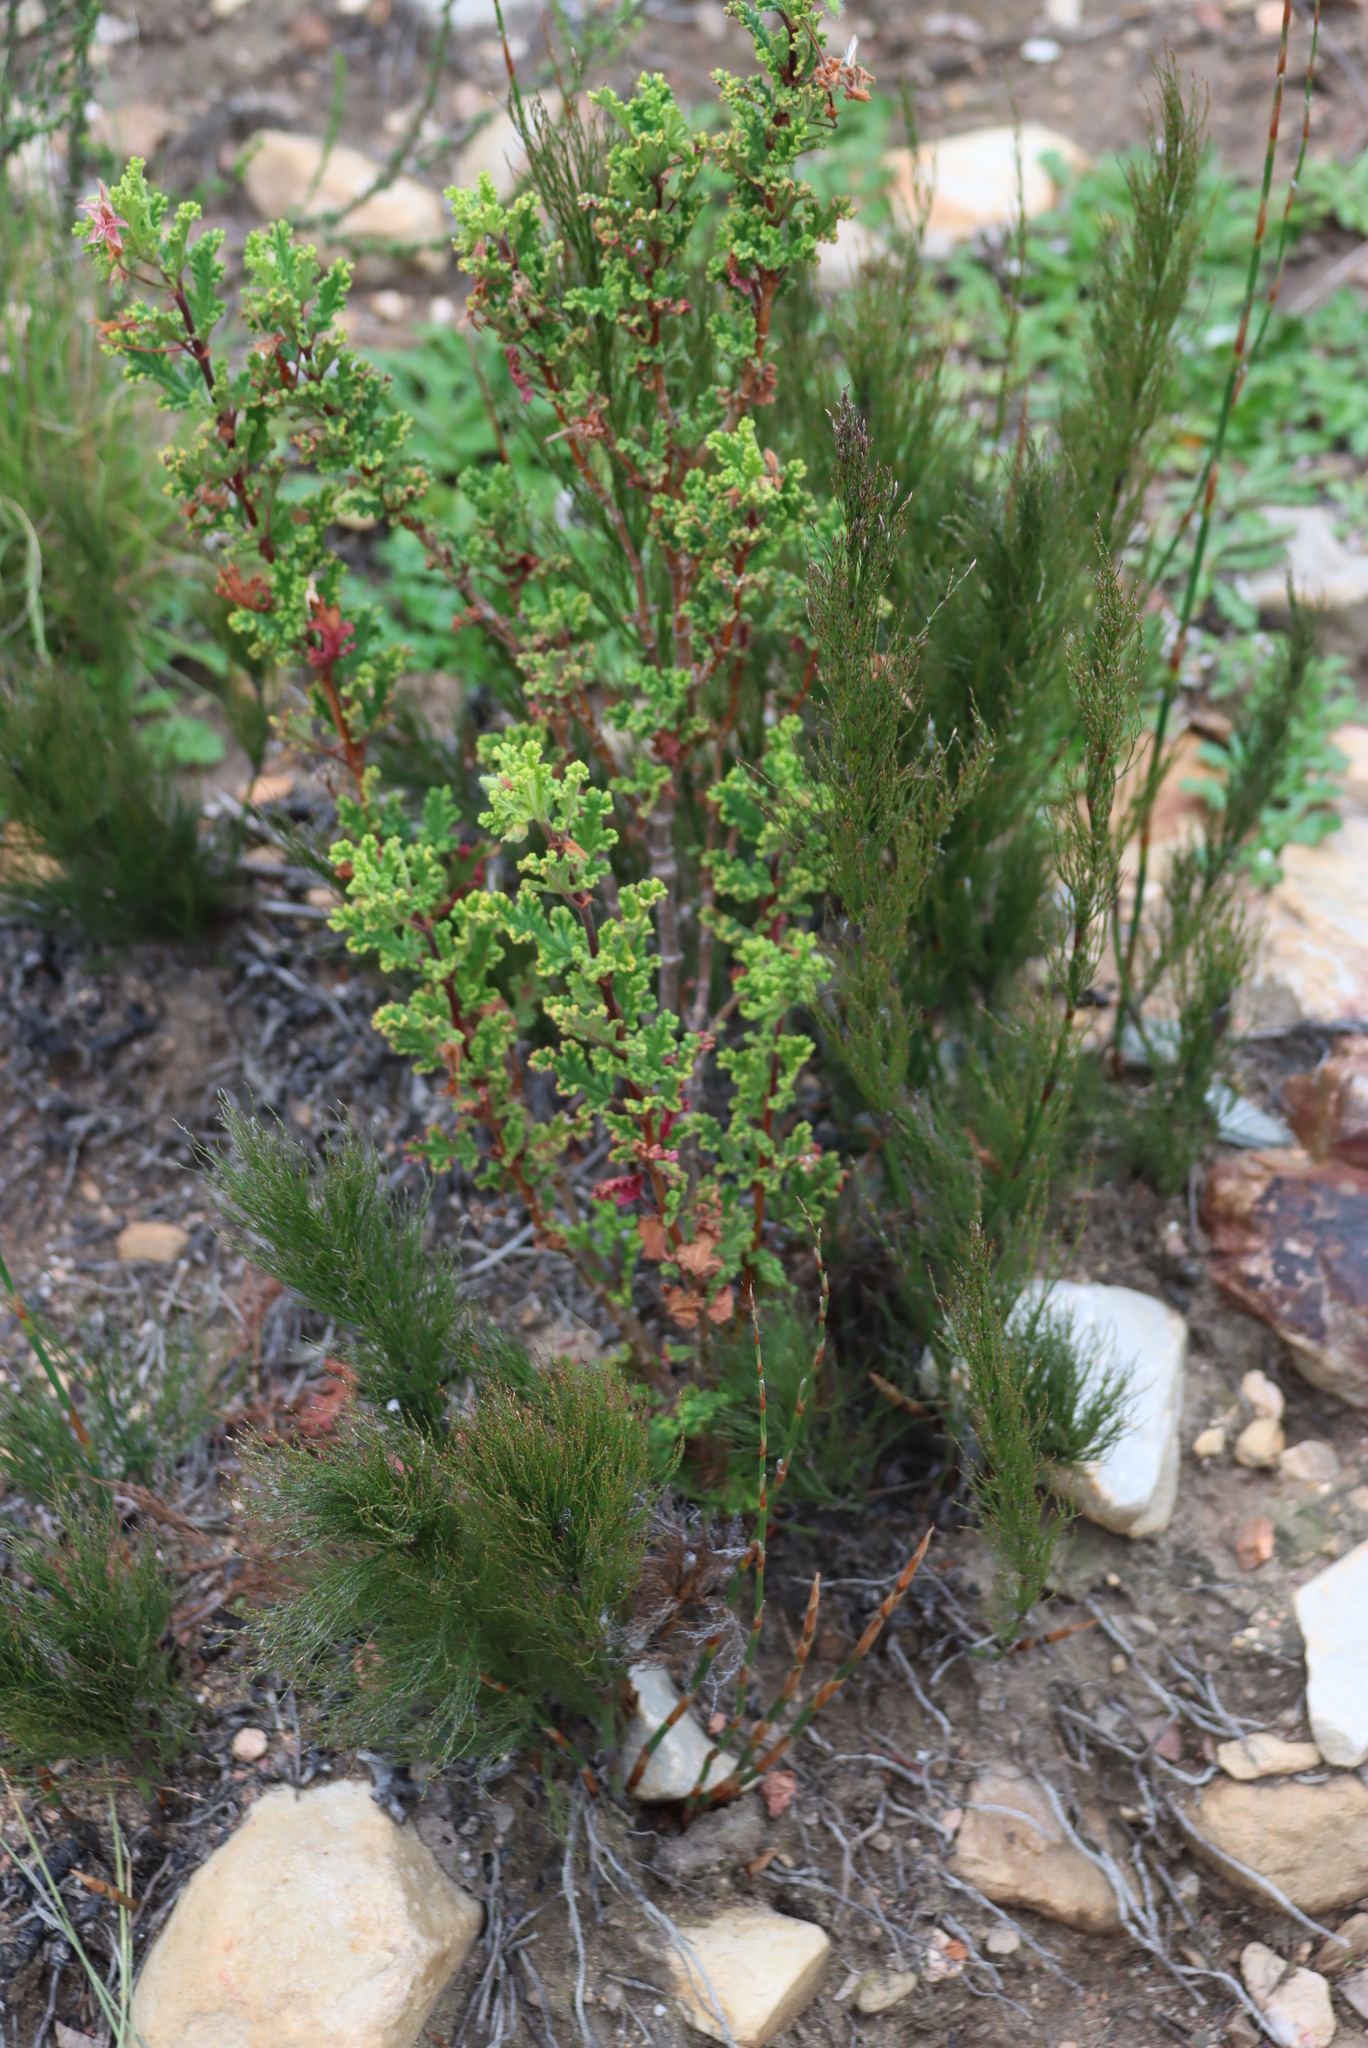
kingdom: Plantae
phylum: Tracheophyta
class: Magnoliopsida
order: Geraniales
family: Geraniaceae
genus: Pelargonium
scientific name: Pelargonium panduriforme
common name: Oakleaf garden geranium
